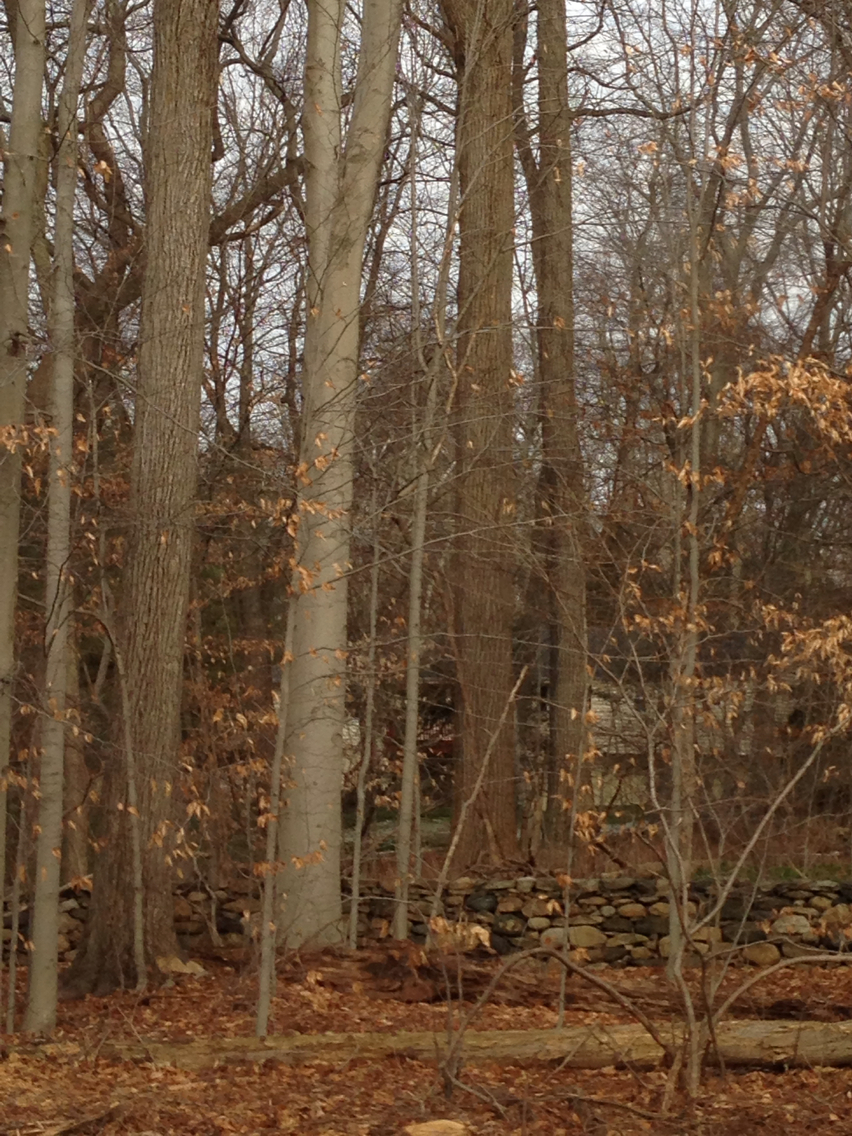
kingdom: Plantae
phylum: Tracheophyta
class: Magnoliopsida
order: Fagales
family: Fagaceae
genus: Fagus
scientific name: Fagus grandifolia
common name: American beech
